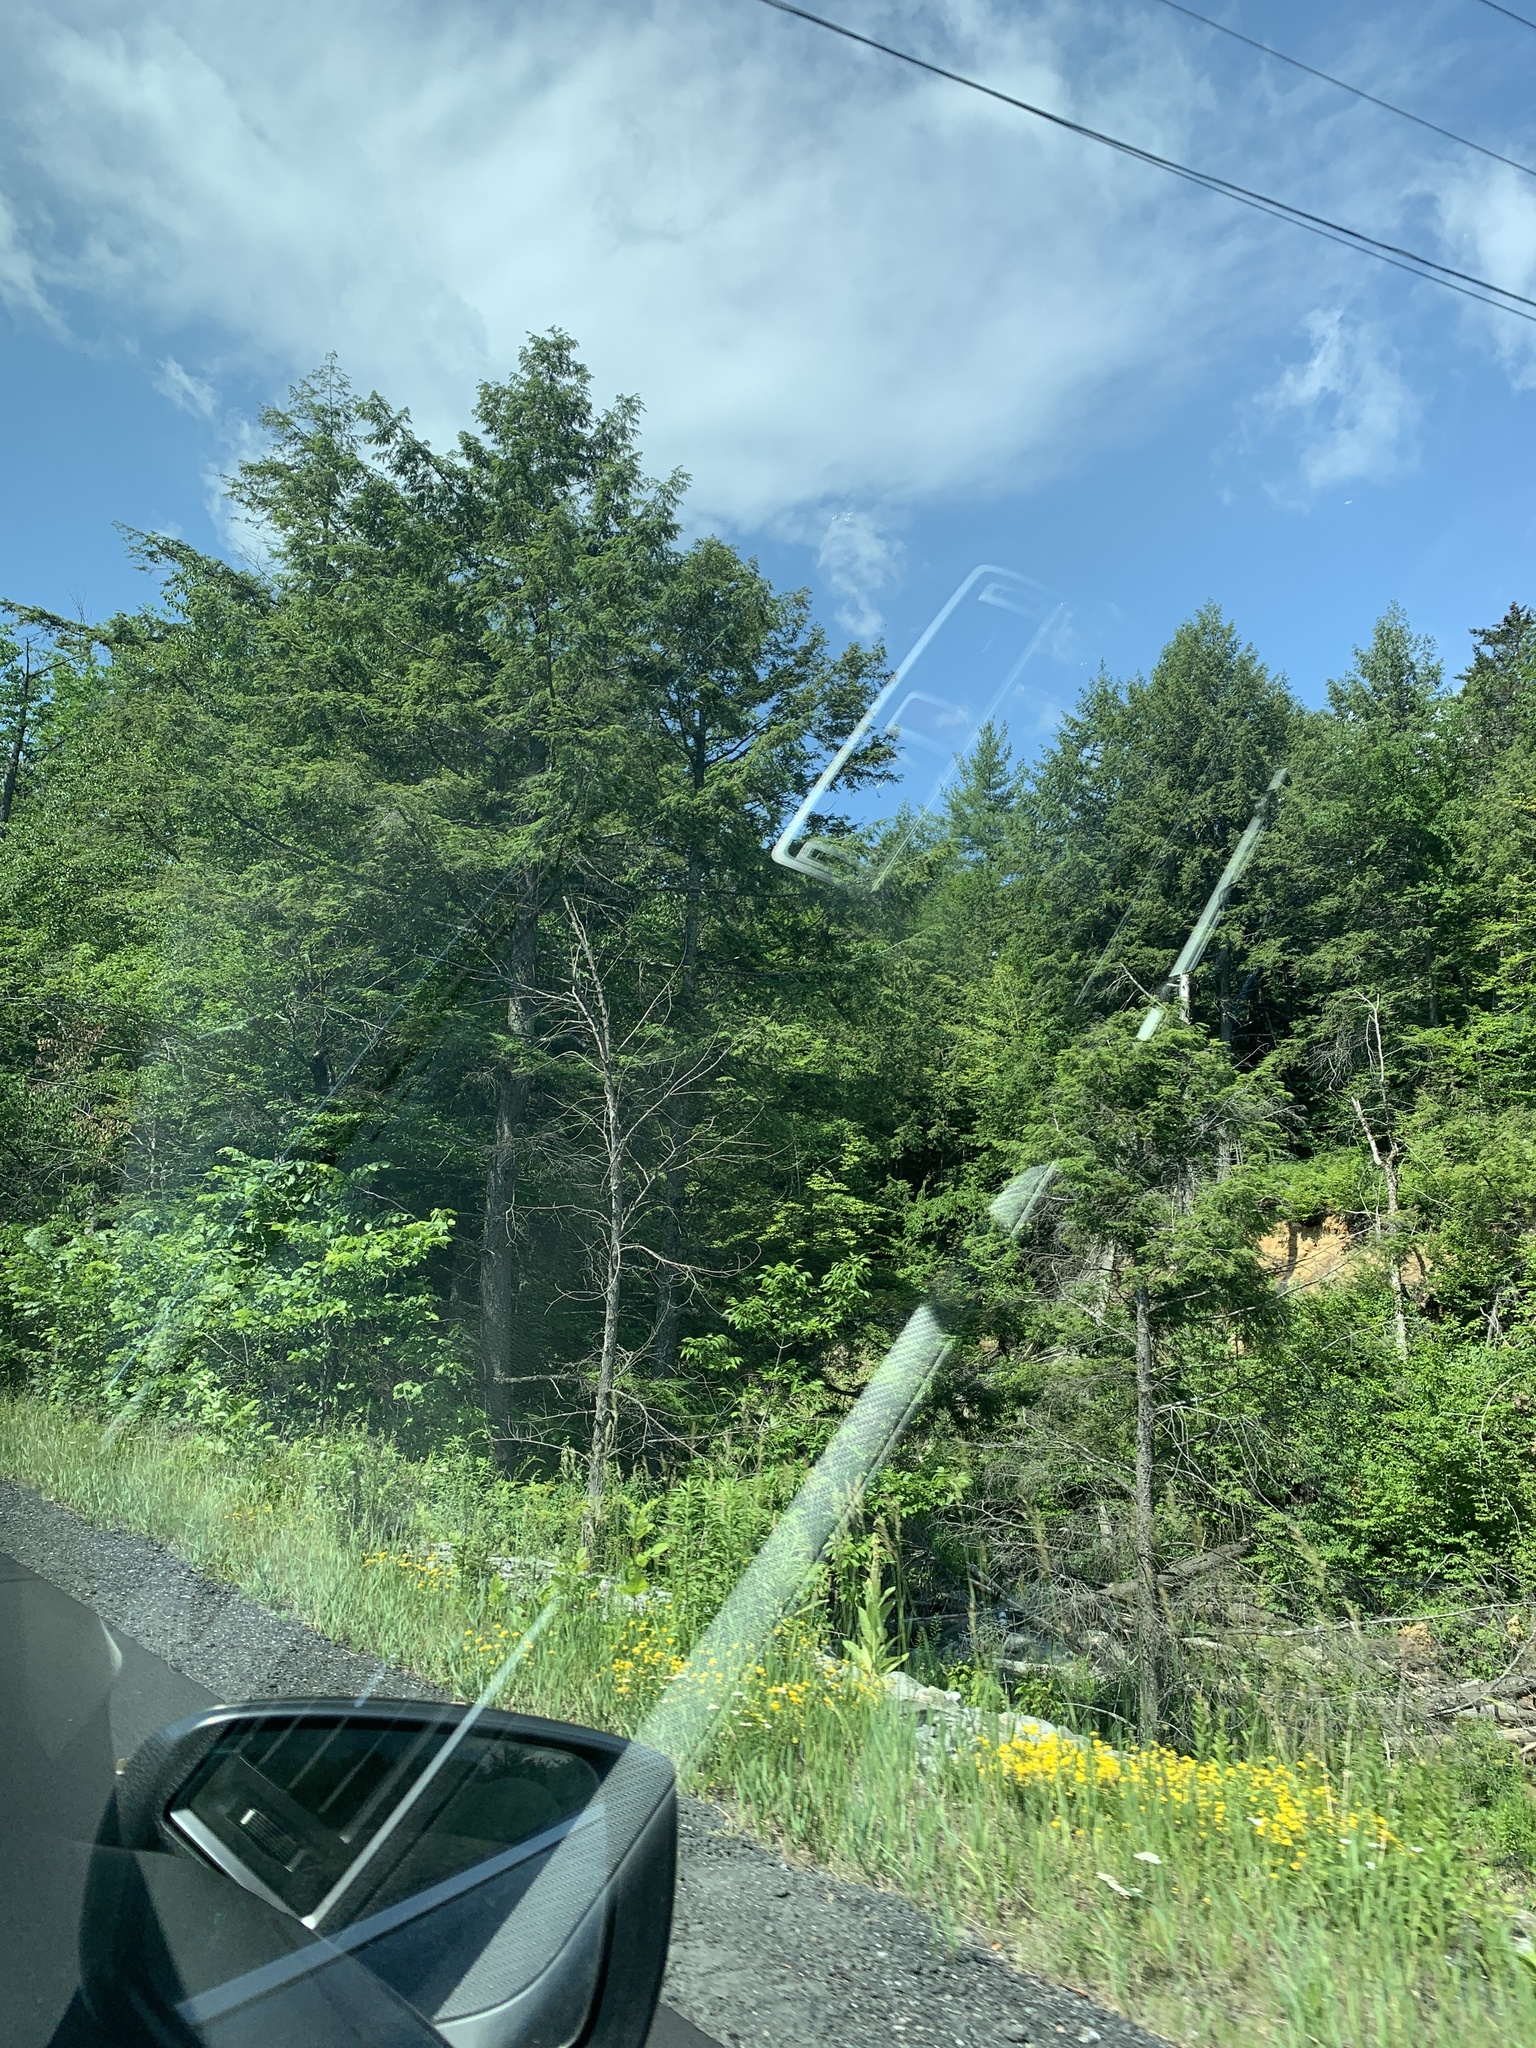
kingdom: Plantae
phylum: Tracheophyta
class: Pinopsida
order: Pinales
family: Pinaceae
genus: Tsuga
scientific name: Tsuga canadensis
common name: Eastern hemlock
